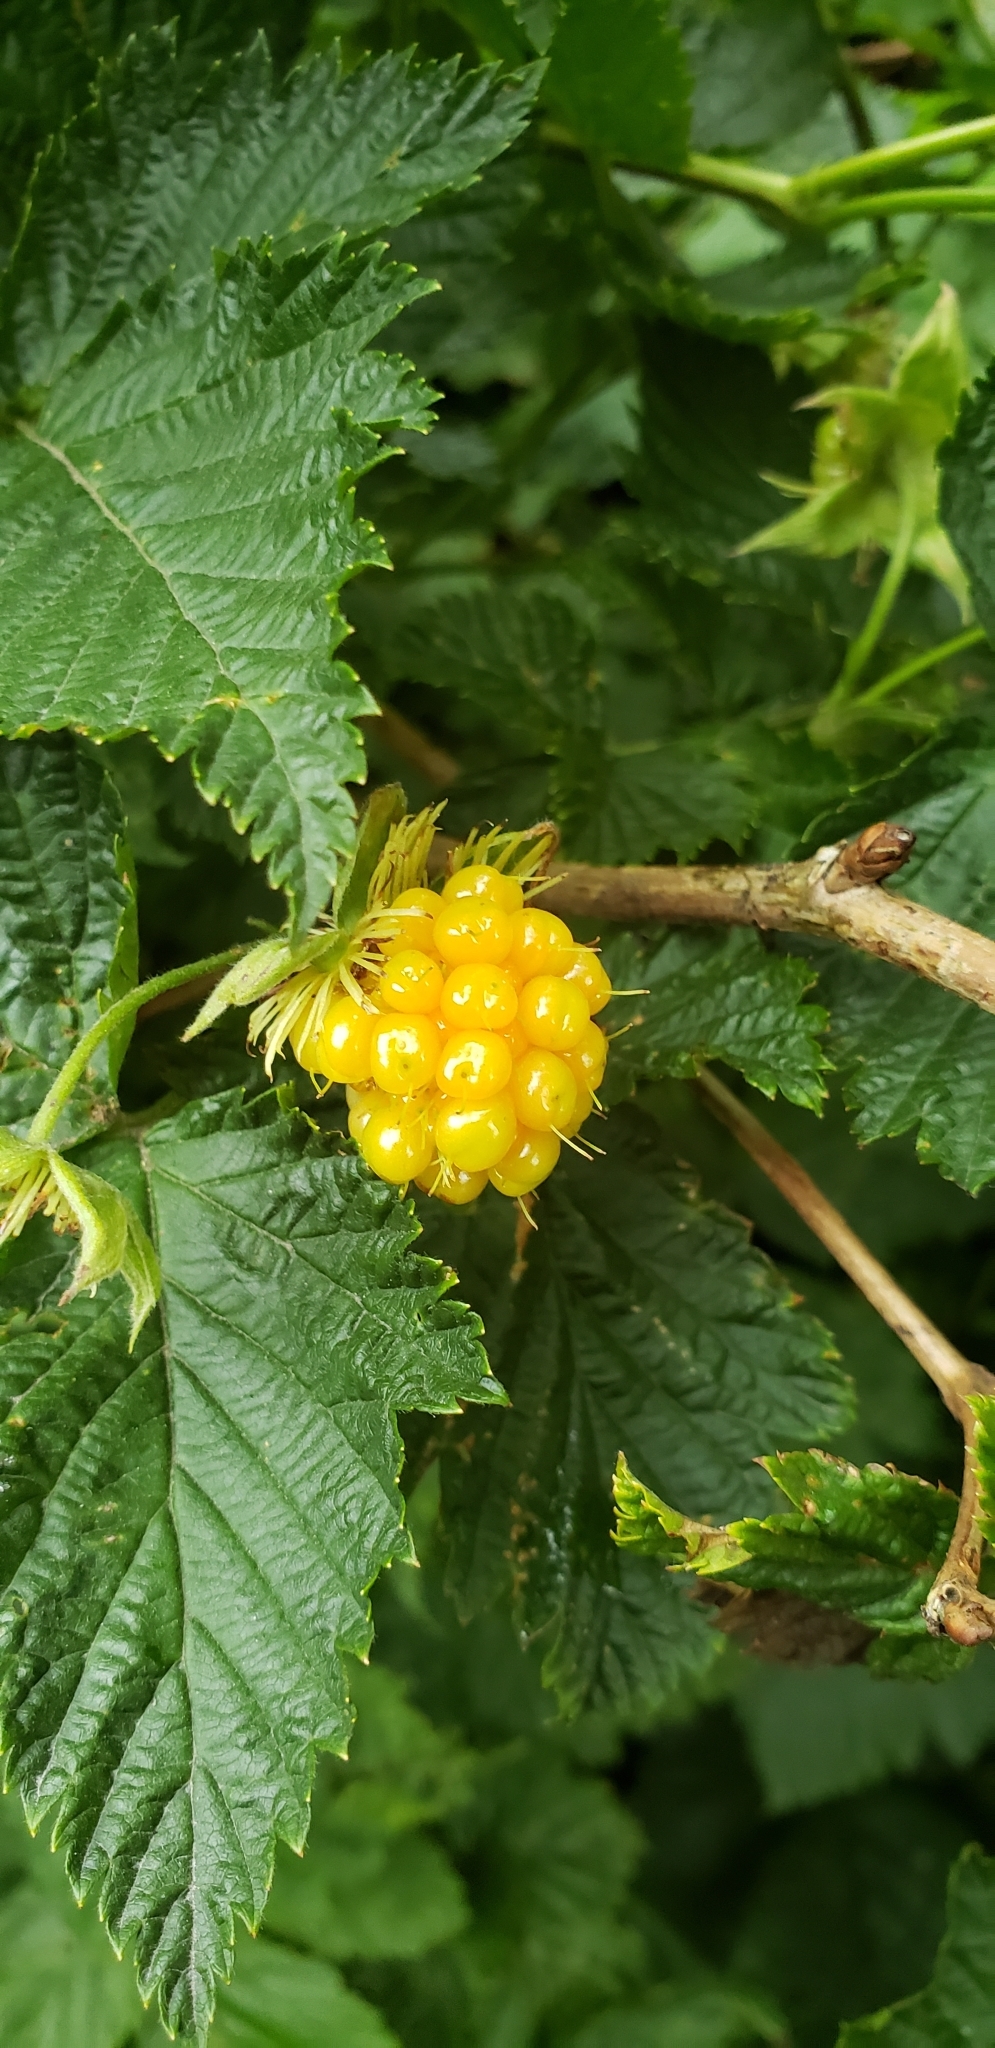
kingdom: Plantae
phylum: Tracheophyta
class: Magnoliopsida
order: Rosales
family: Rosaceae
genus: Rubus
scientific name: Rubus spectabilis
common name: Salmonberry
